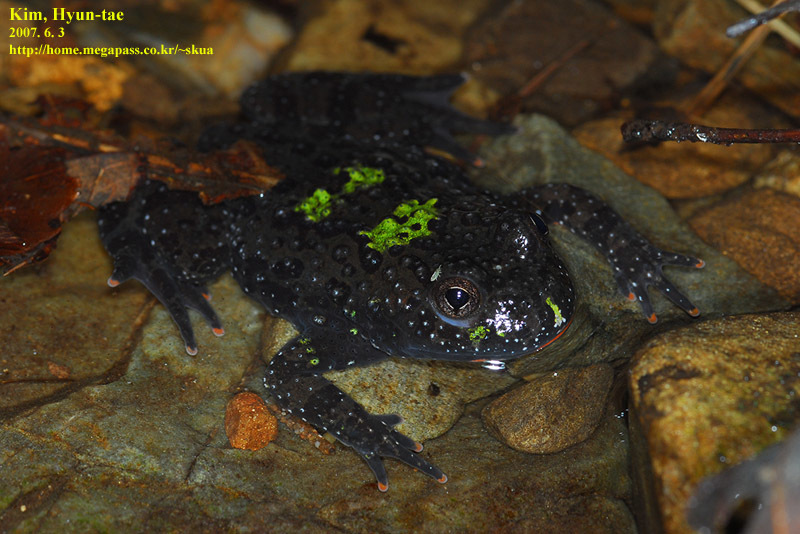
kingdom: Animalia
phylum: Chordata
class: Amphibia
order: Anura
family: Bombinatoridae
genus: Bombina
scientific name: Bombina orientalis
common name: Oriental firebelly toad
